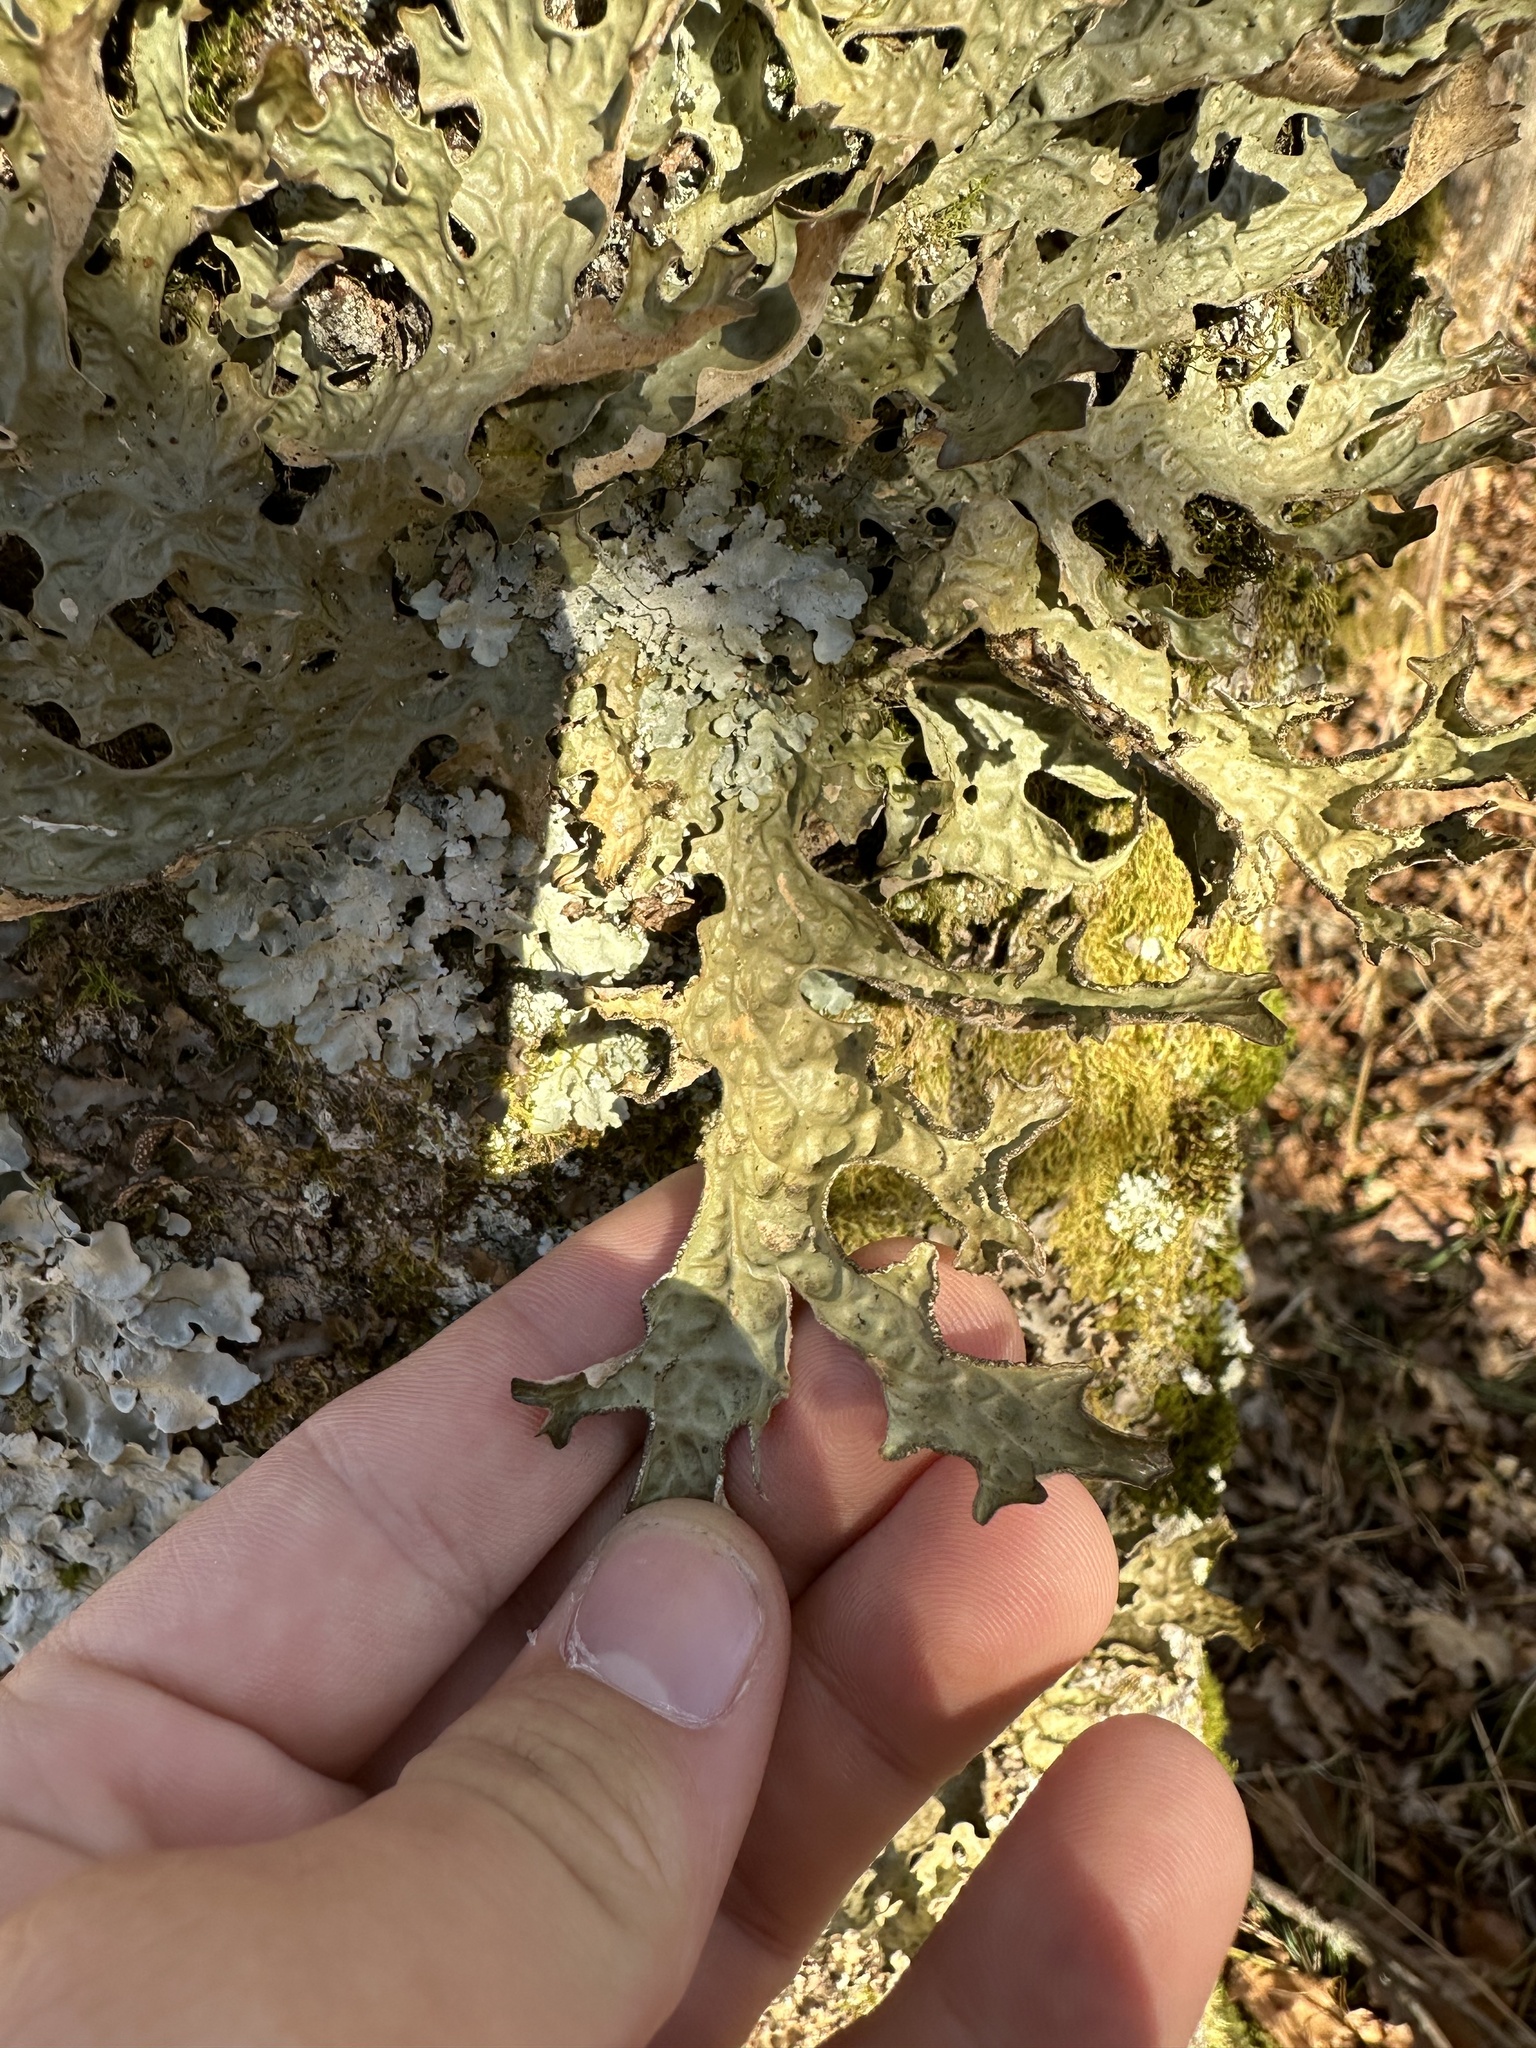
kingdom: Fungi
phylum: Ascomycota
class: Lecanoromycetes
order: Peltigerales
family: Lobariaceae
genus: Lobaria
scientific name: Lobaria pulmonaria
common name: Lungwort
